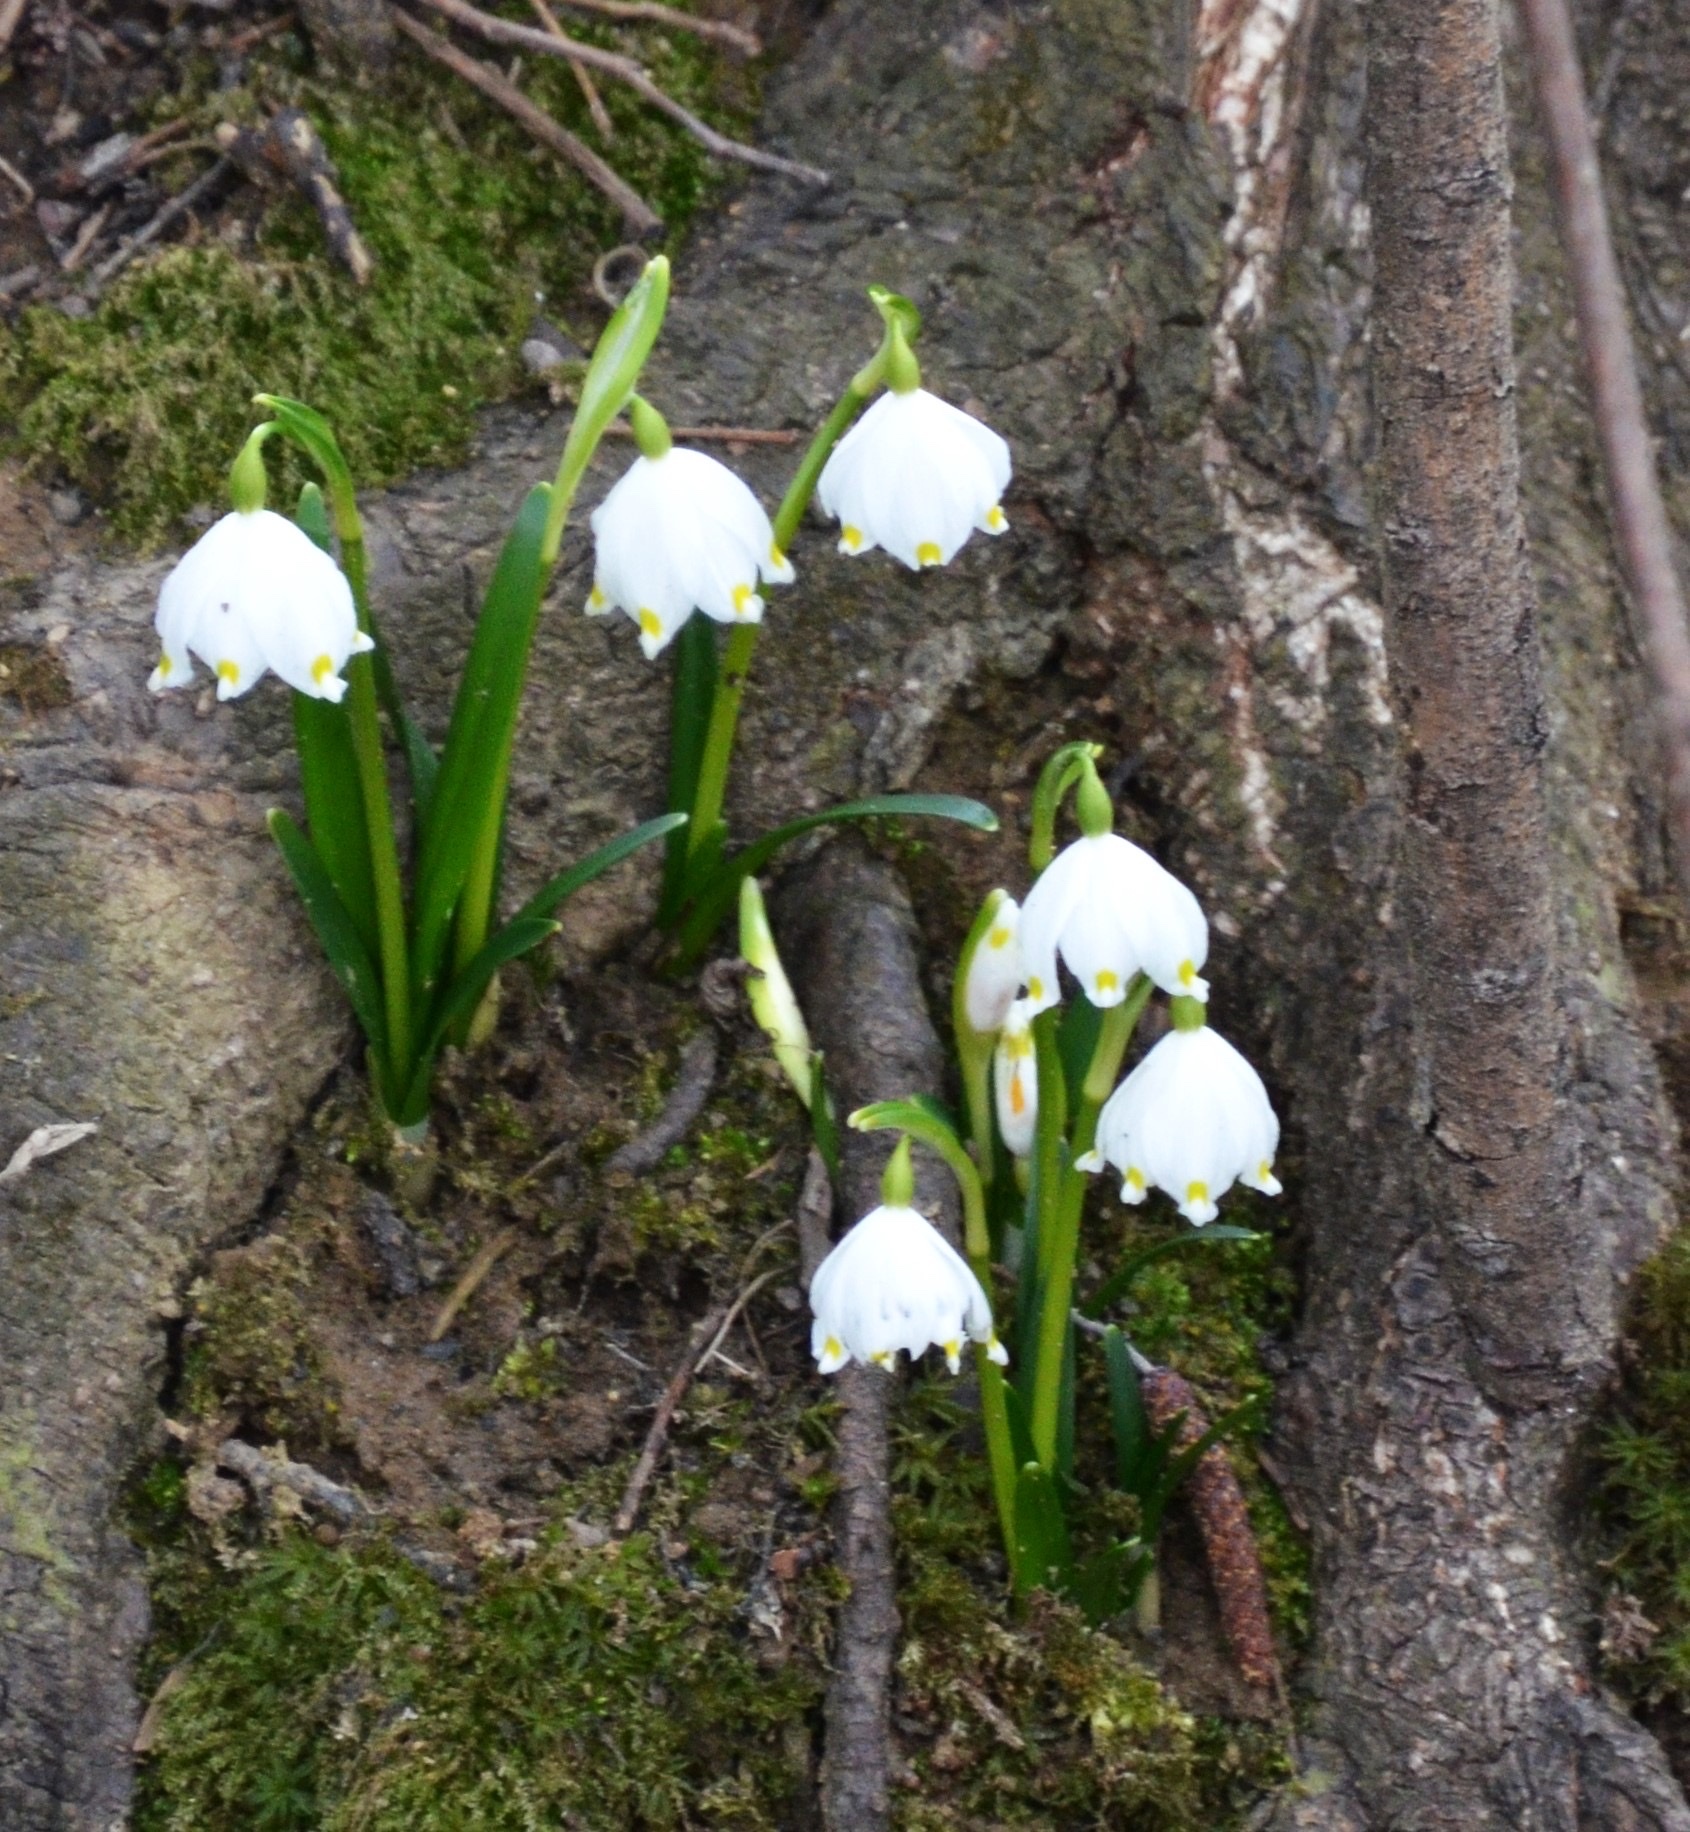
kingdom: Plantae
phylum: Tracheophyta
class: Liliopsida
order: Asparagales
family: Amaryllidaceae
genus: Leucojum
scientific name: Leucojum vernum
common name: Spring snowflake
